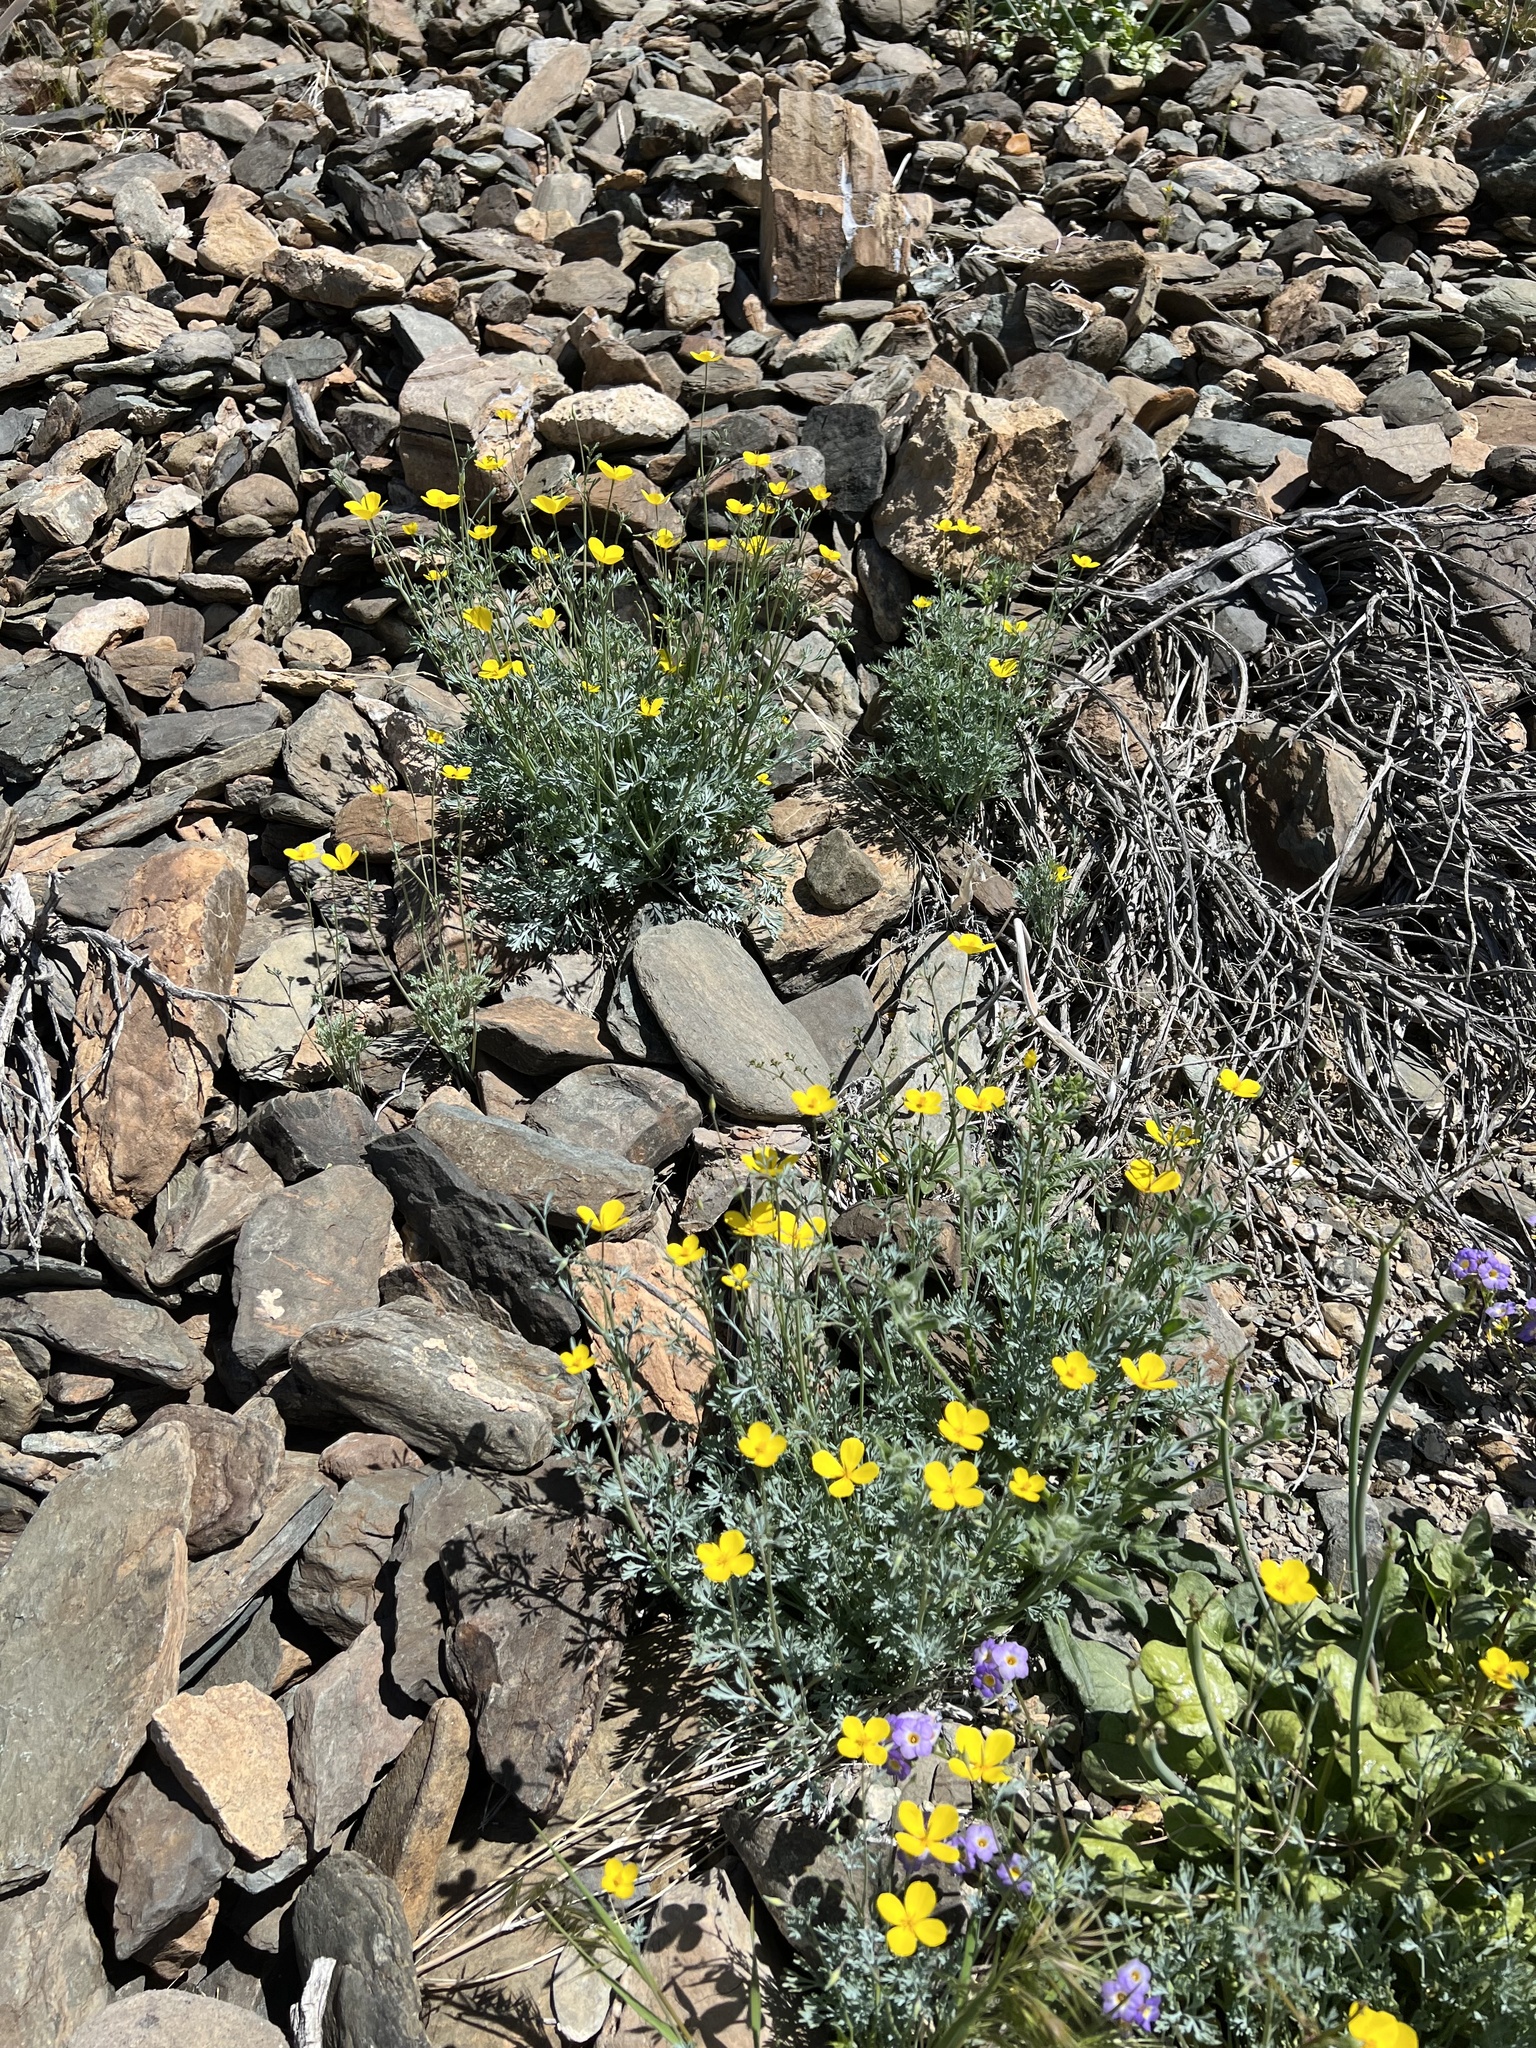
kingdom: Plantae
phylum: Tracheophyta
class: Magnoliopsida
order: Ranunculales
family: Papaveraceae
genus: Eschscholzia
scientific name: Eschscholzia minutiflora
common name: Small-flower california-poppy
